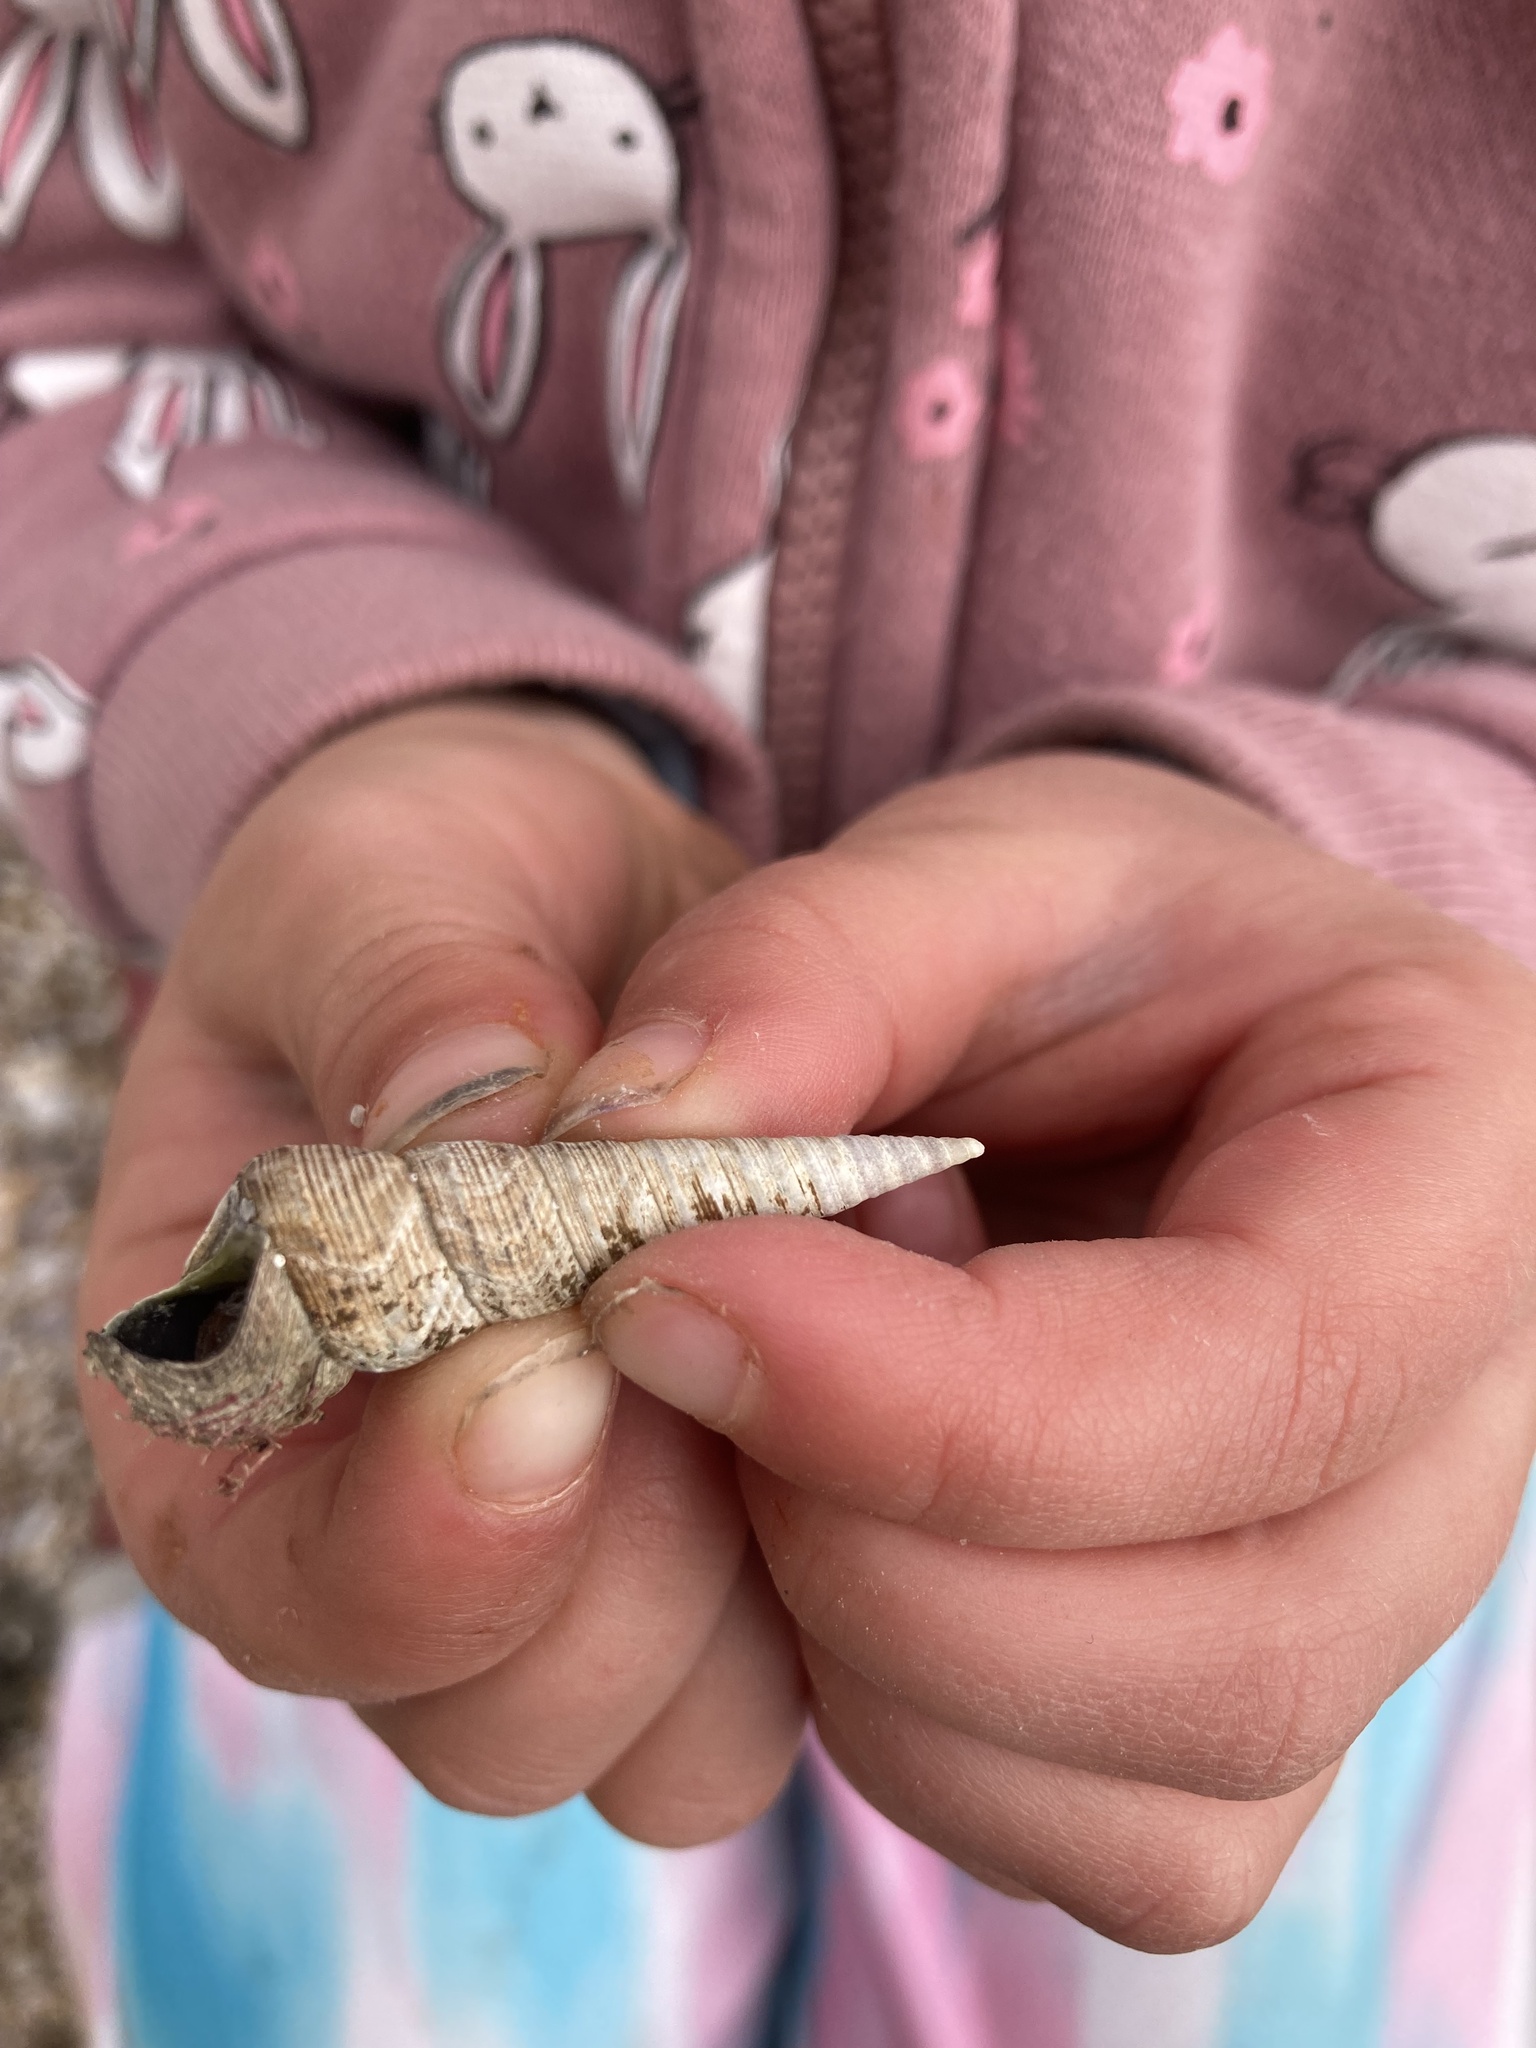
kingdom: Animalia
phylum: Mollusca
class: Gastropoda
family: Turritellidae
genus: Maoricolpus
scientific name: Maoricolpus roseus
